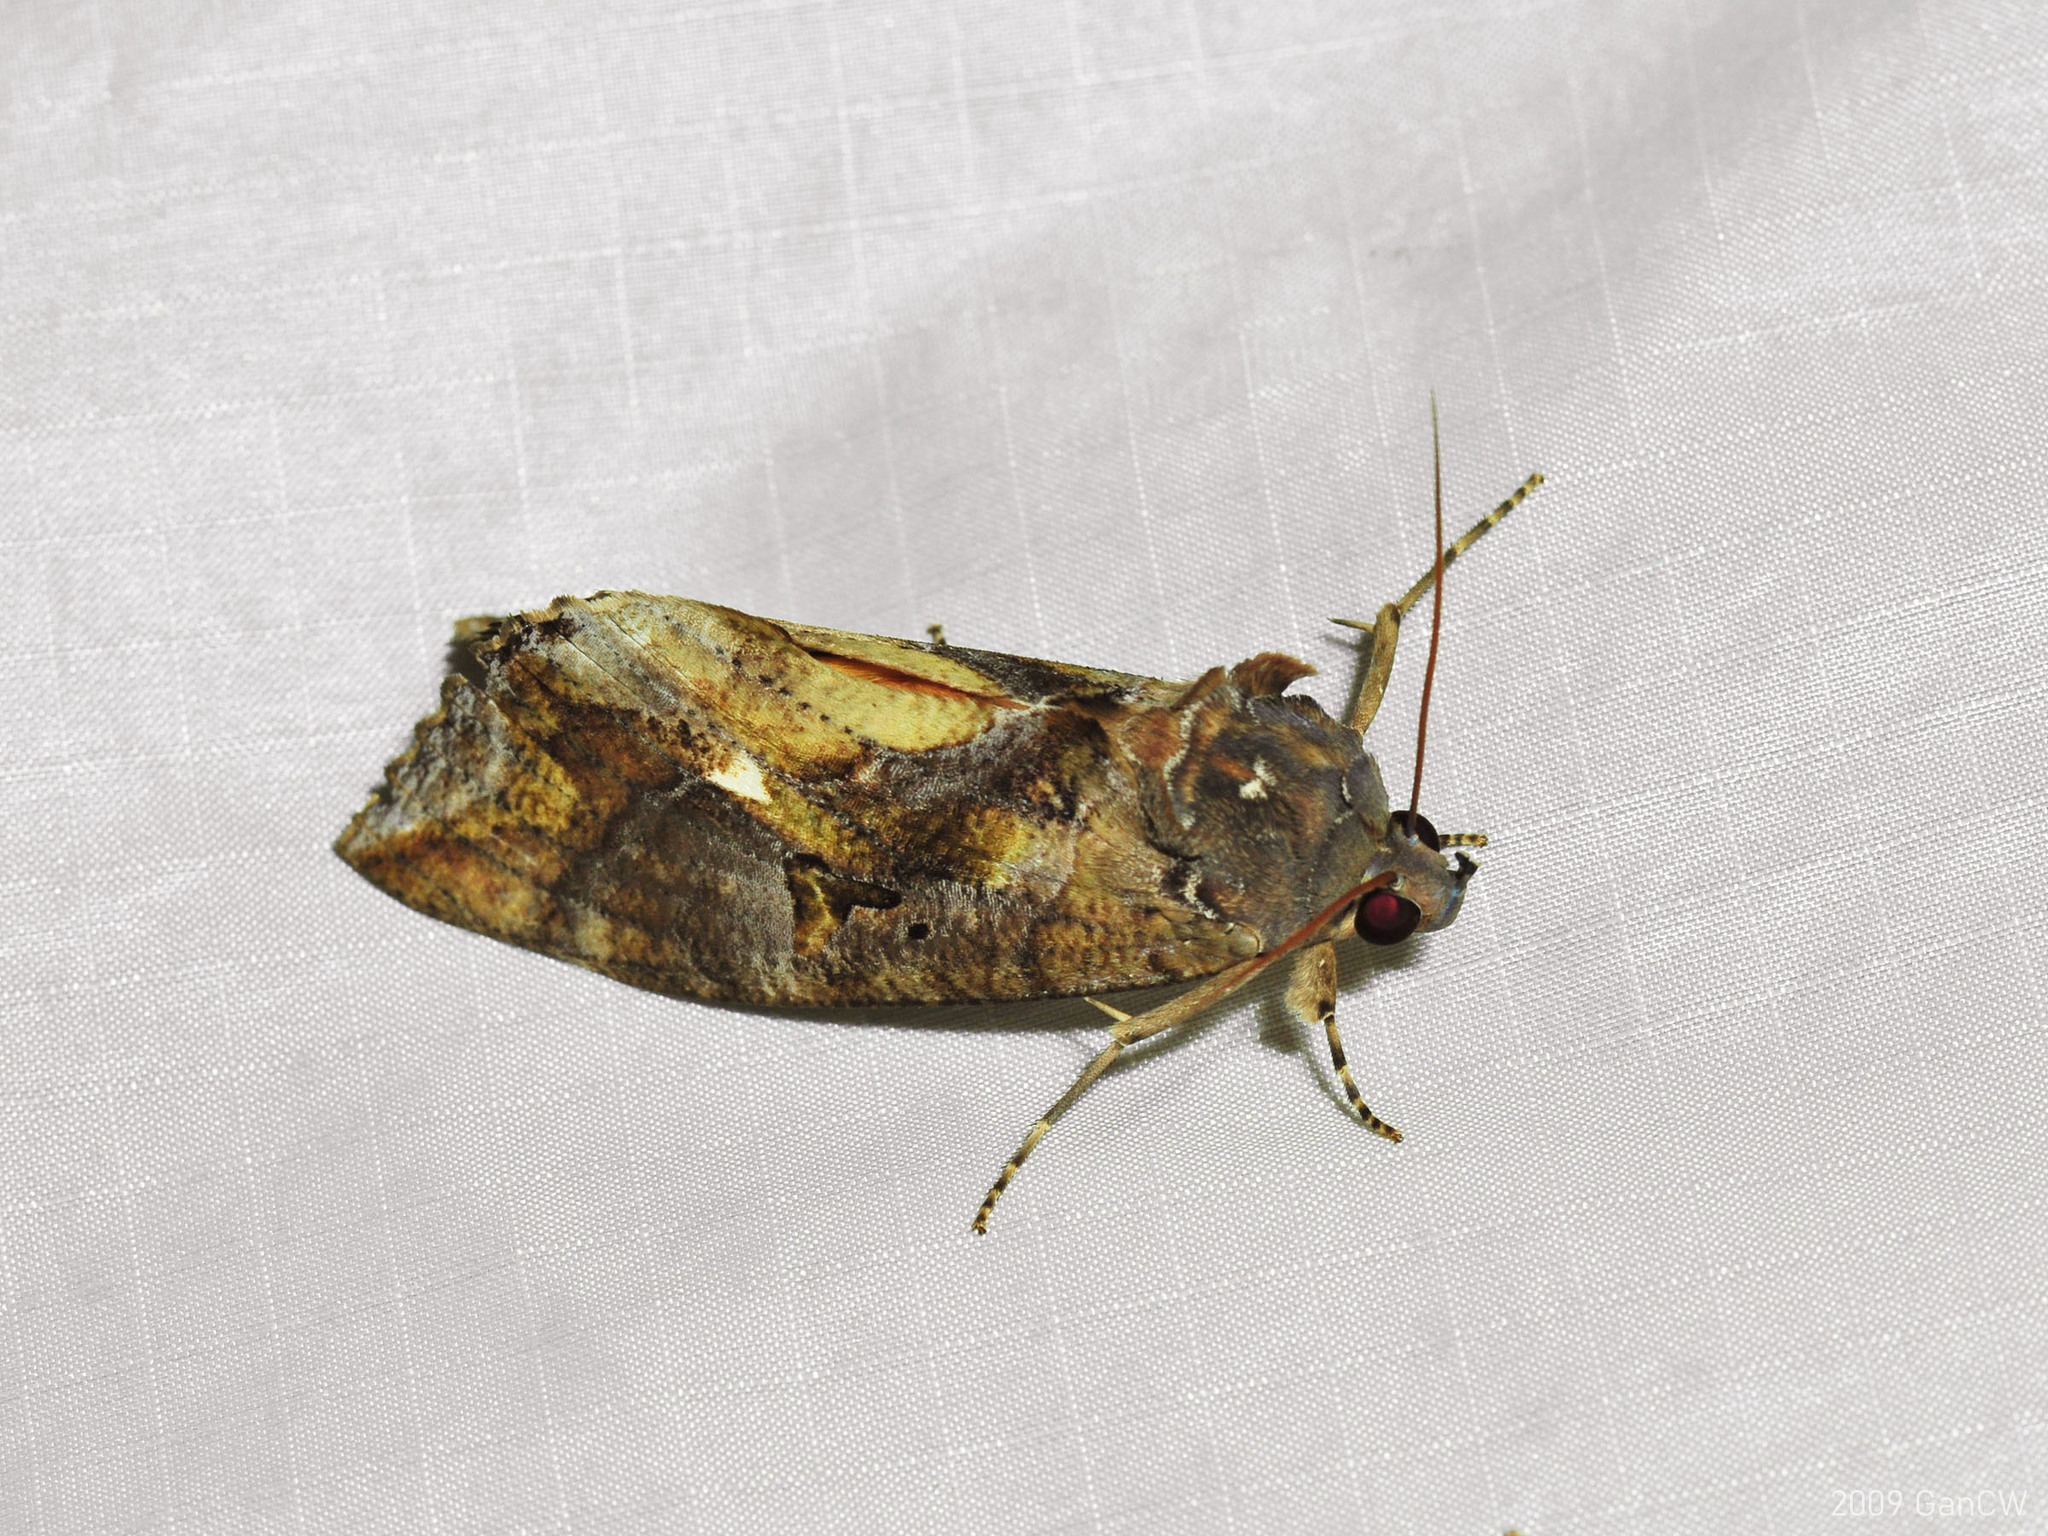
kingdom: Animalia
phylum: Arthropoda
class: Insecta
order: Lepidoptera
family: Erebidae
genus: Eudocima
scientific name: Eudocima phalonia
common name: Wasp
